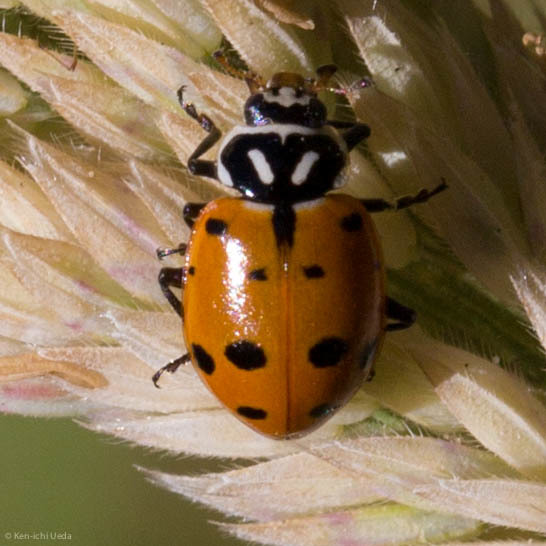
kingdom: Animalia
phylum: Arthropoda
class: Insecta
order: Coleoptera
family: Coccinellidae
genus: Hippodamia
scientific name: Hippodamia convergens
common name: Convergent lady beetle
